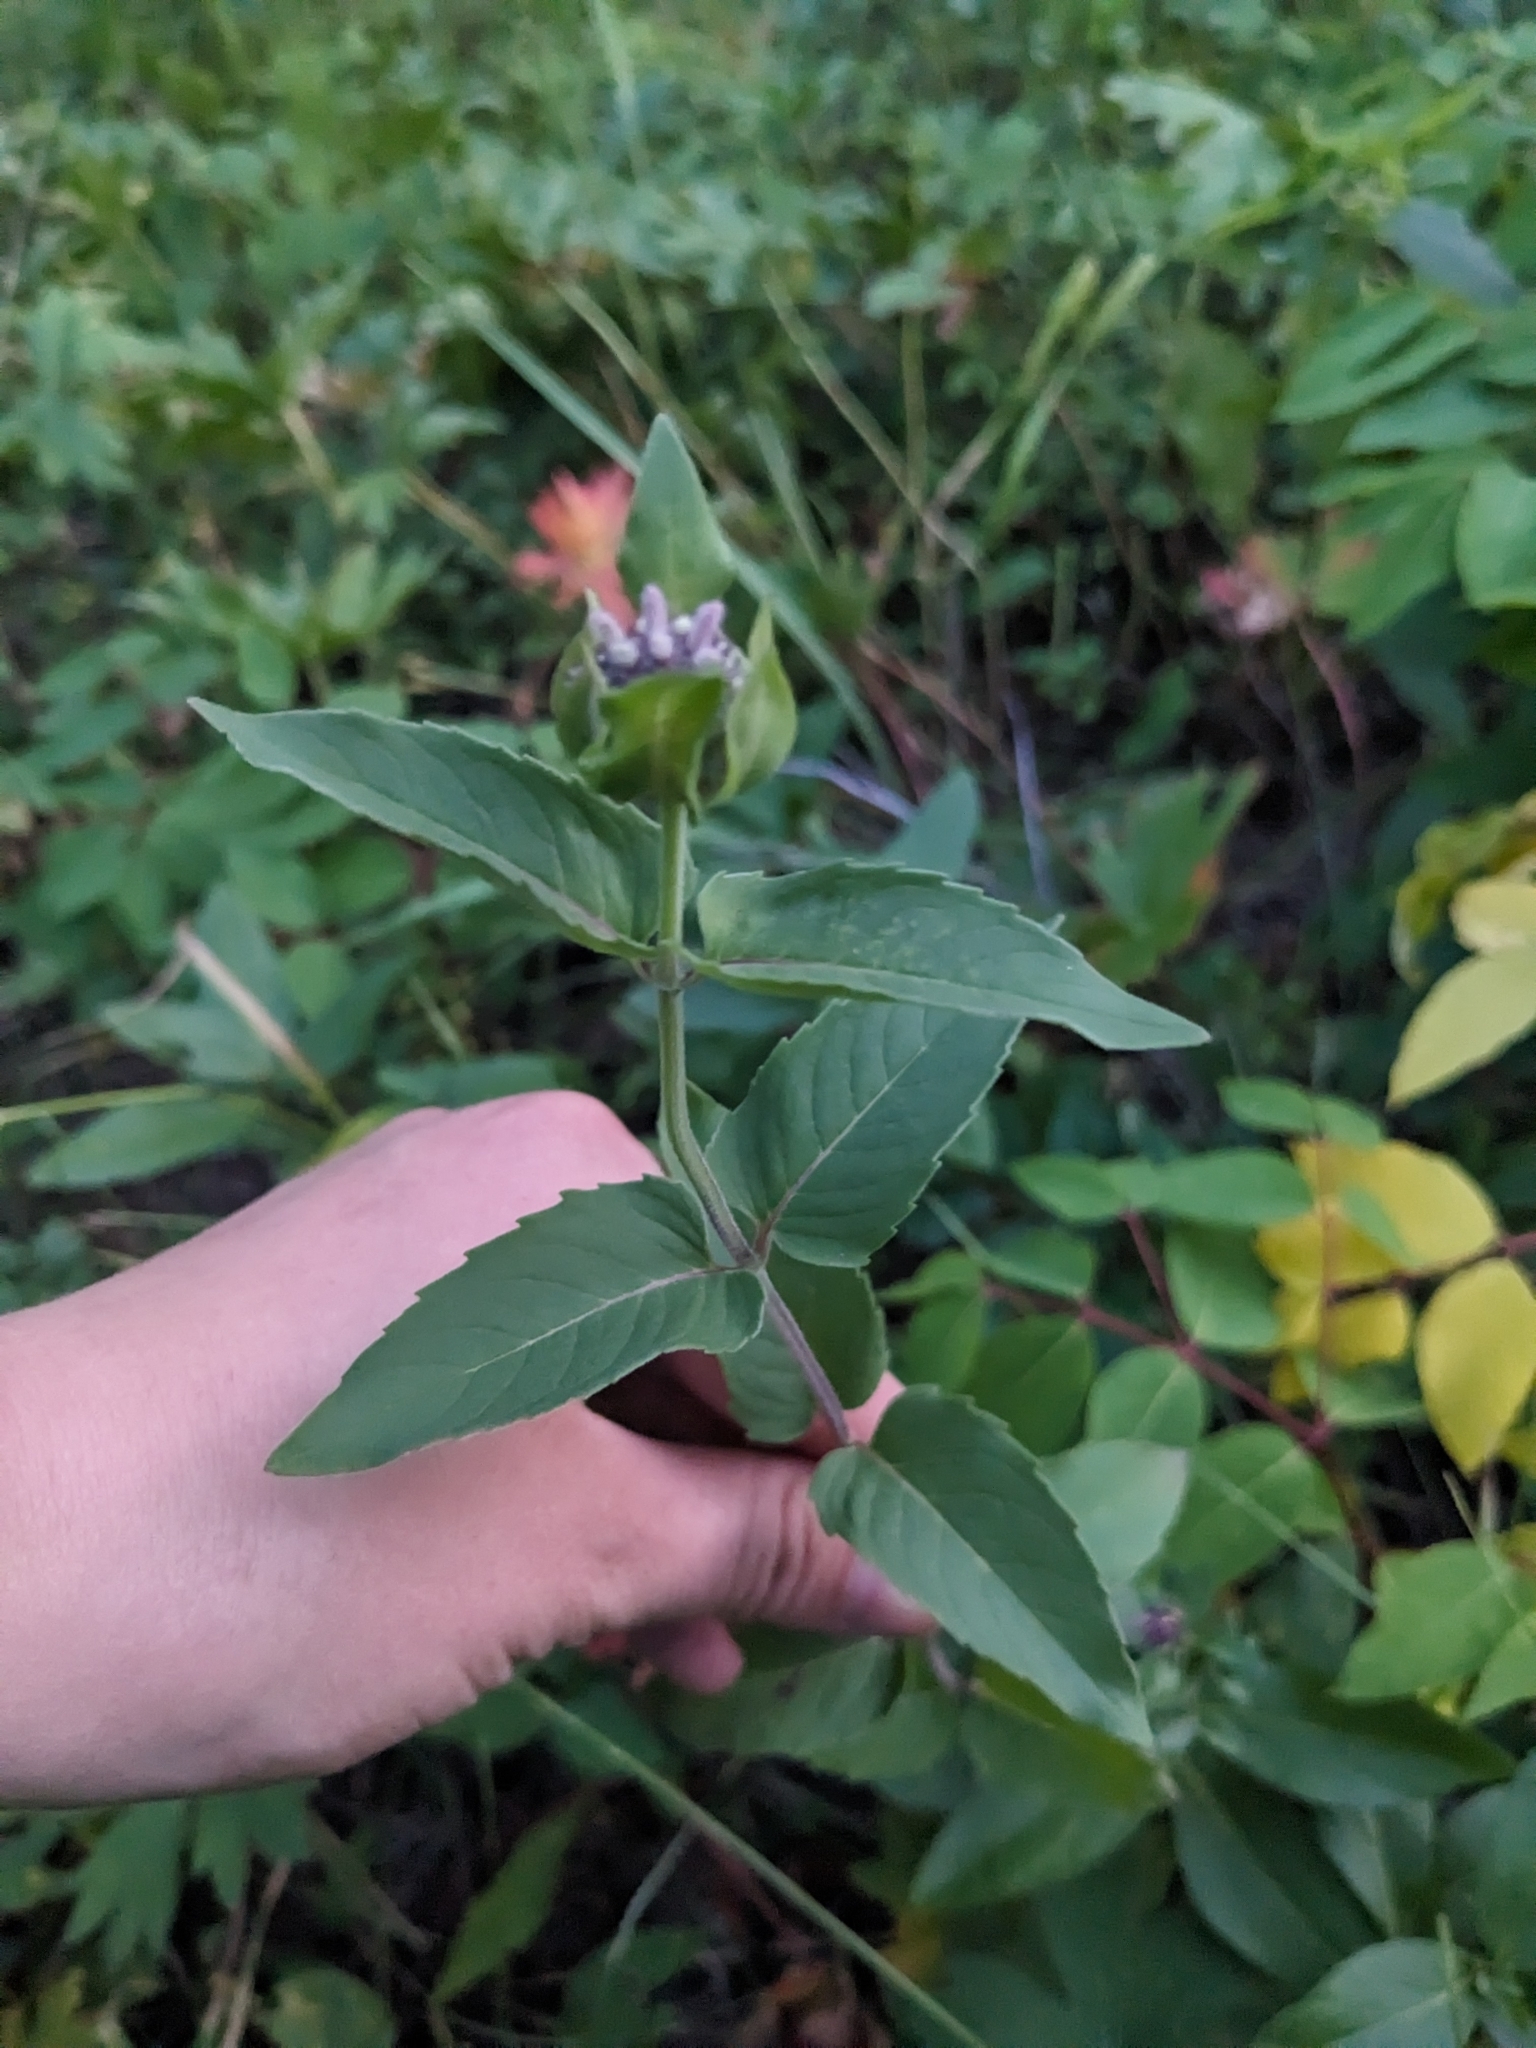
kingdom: Plantae
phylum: Tracheophyta
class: Magnoliopsida
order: Lamiales
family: Lamiaceae
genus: Monarda
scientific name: Monarda fistulosa
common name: Purple beebalm
